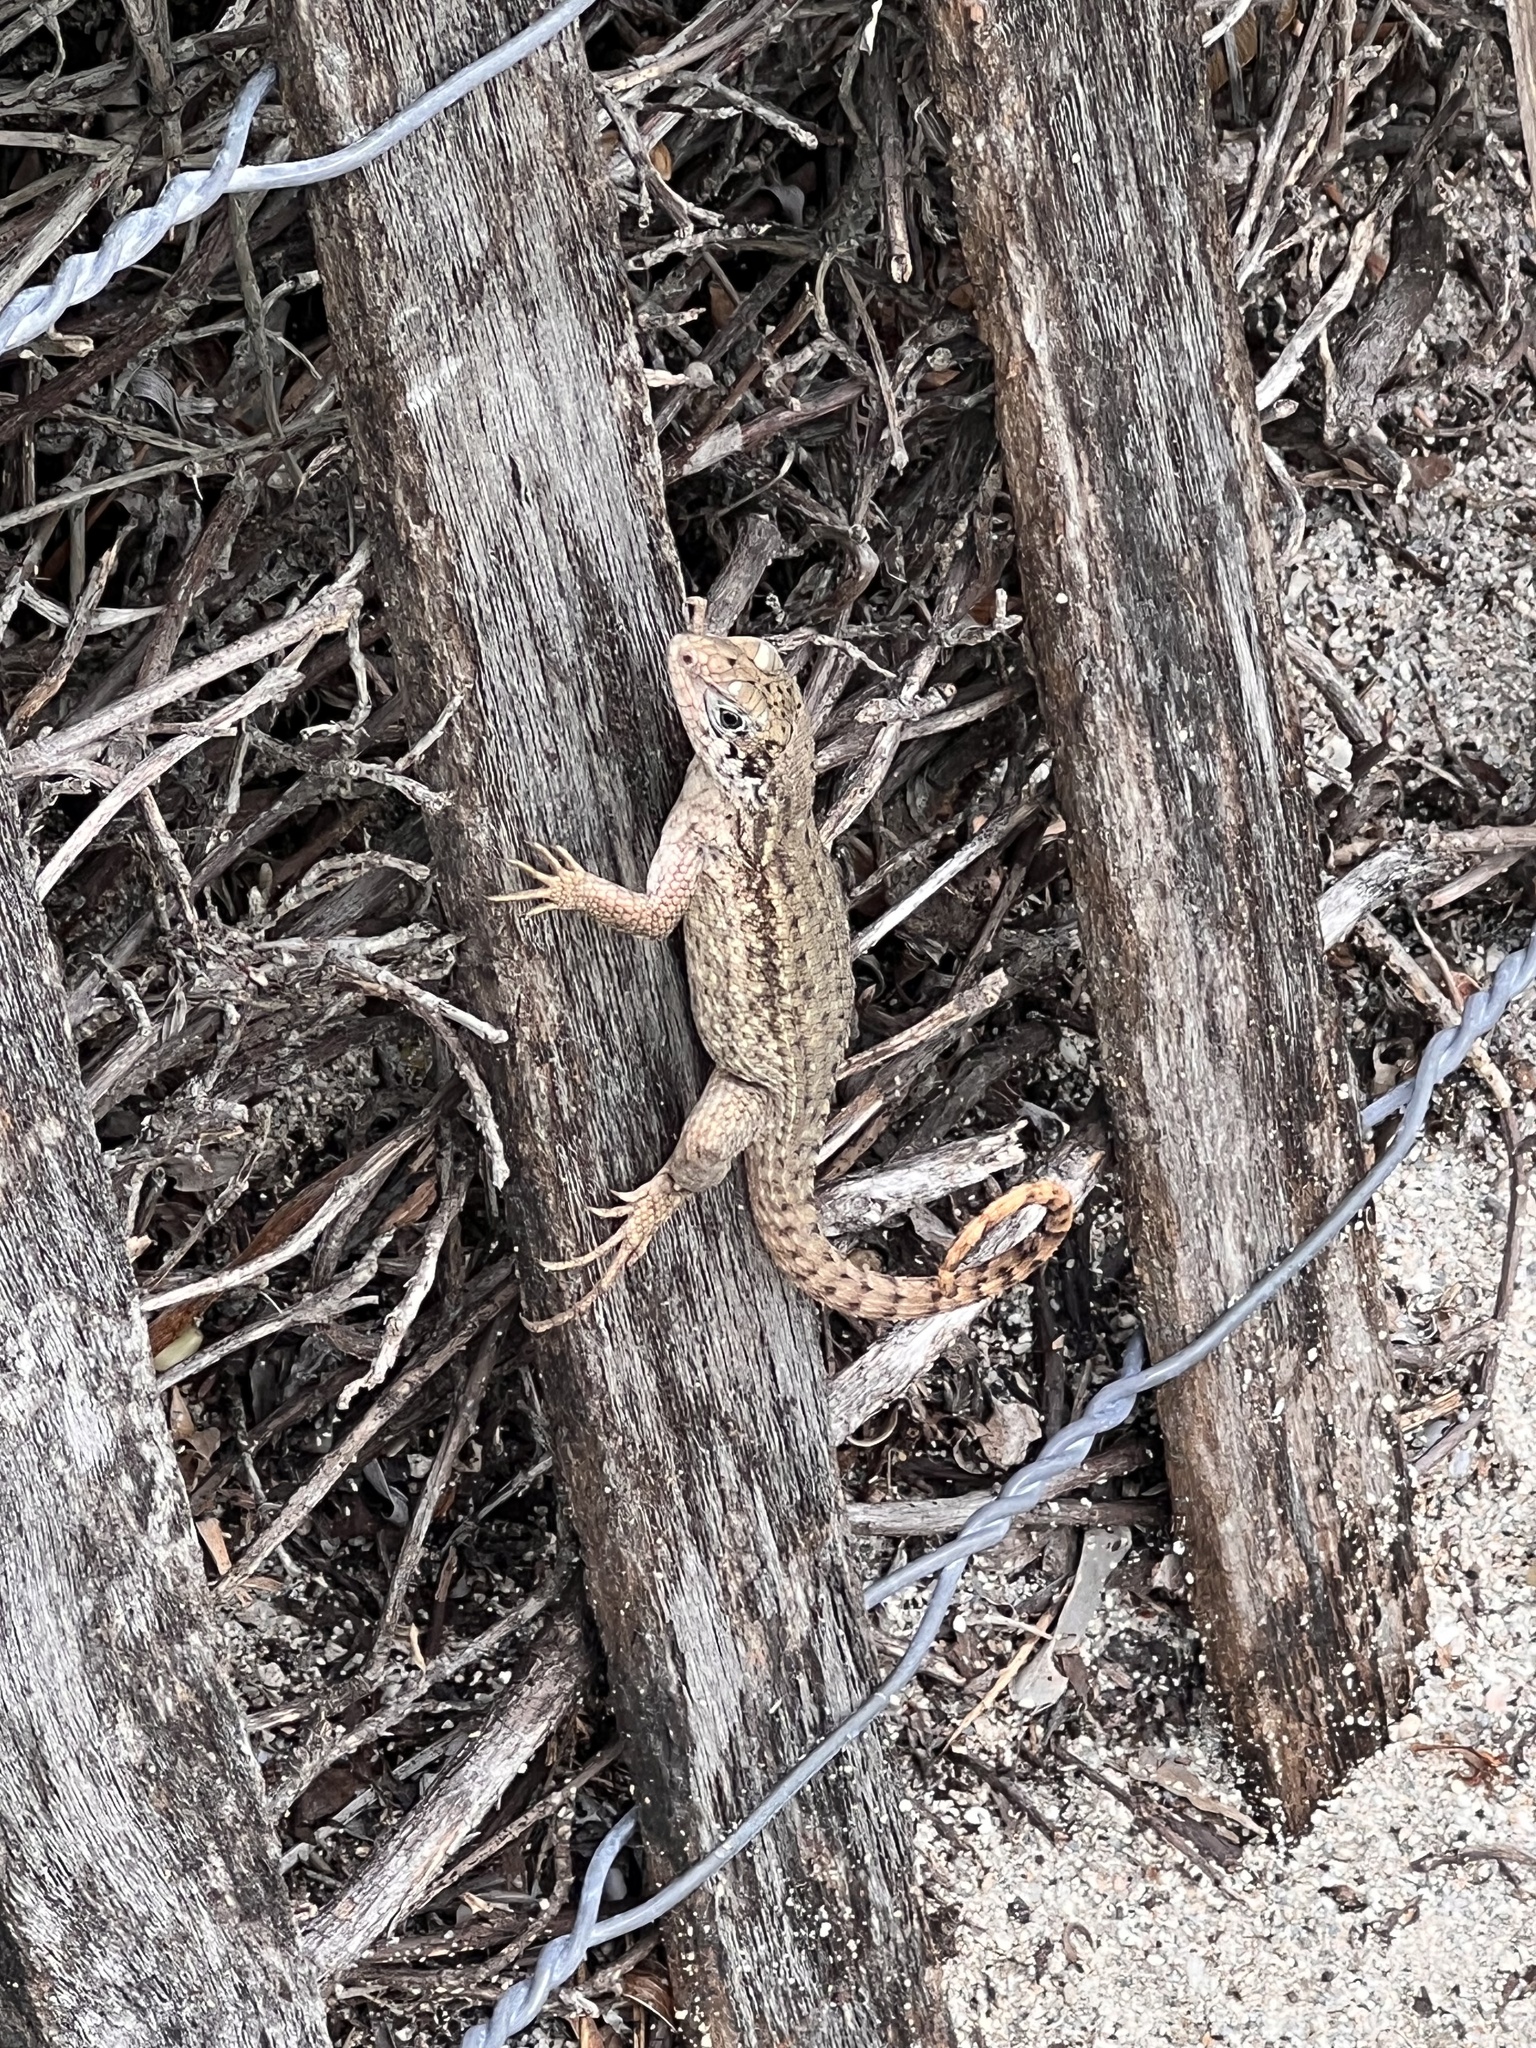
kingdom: Animalia
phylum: Chordata
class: Squamata
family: Leiocephalidae
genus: Leiocephalus
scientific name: Leiocephalus carinatus
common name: Northern curly-tailed lizard
